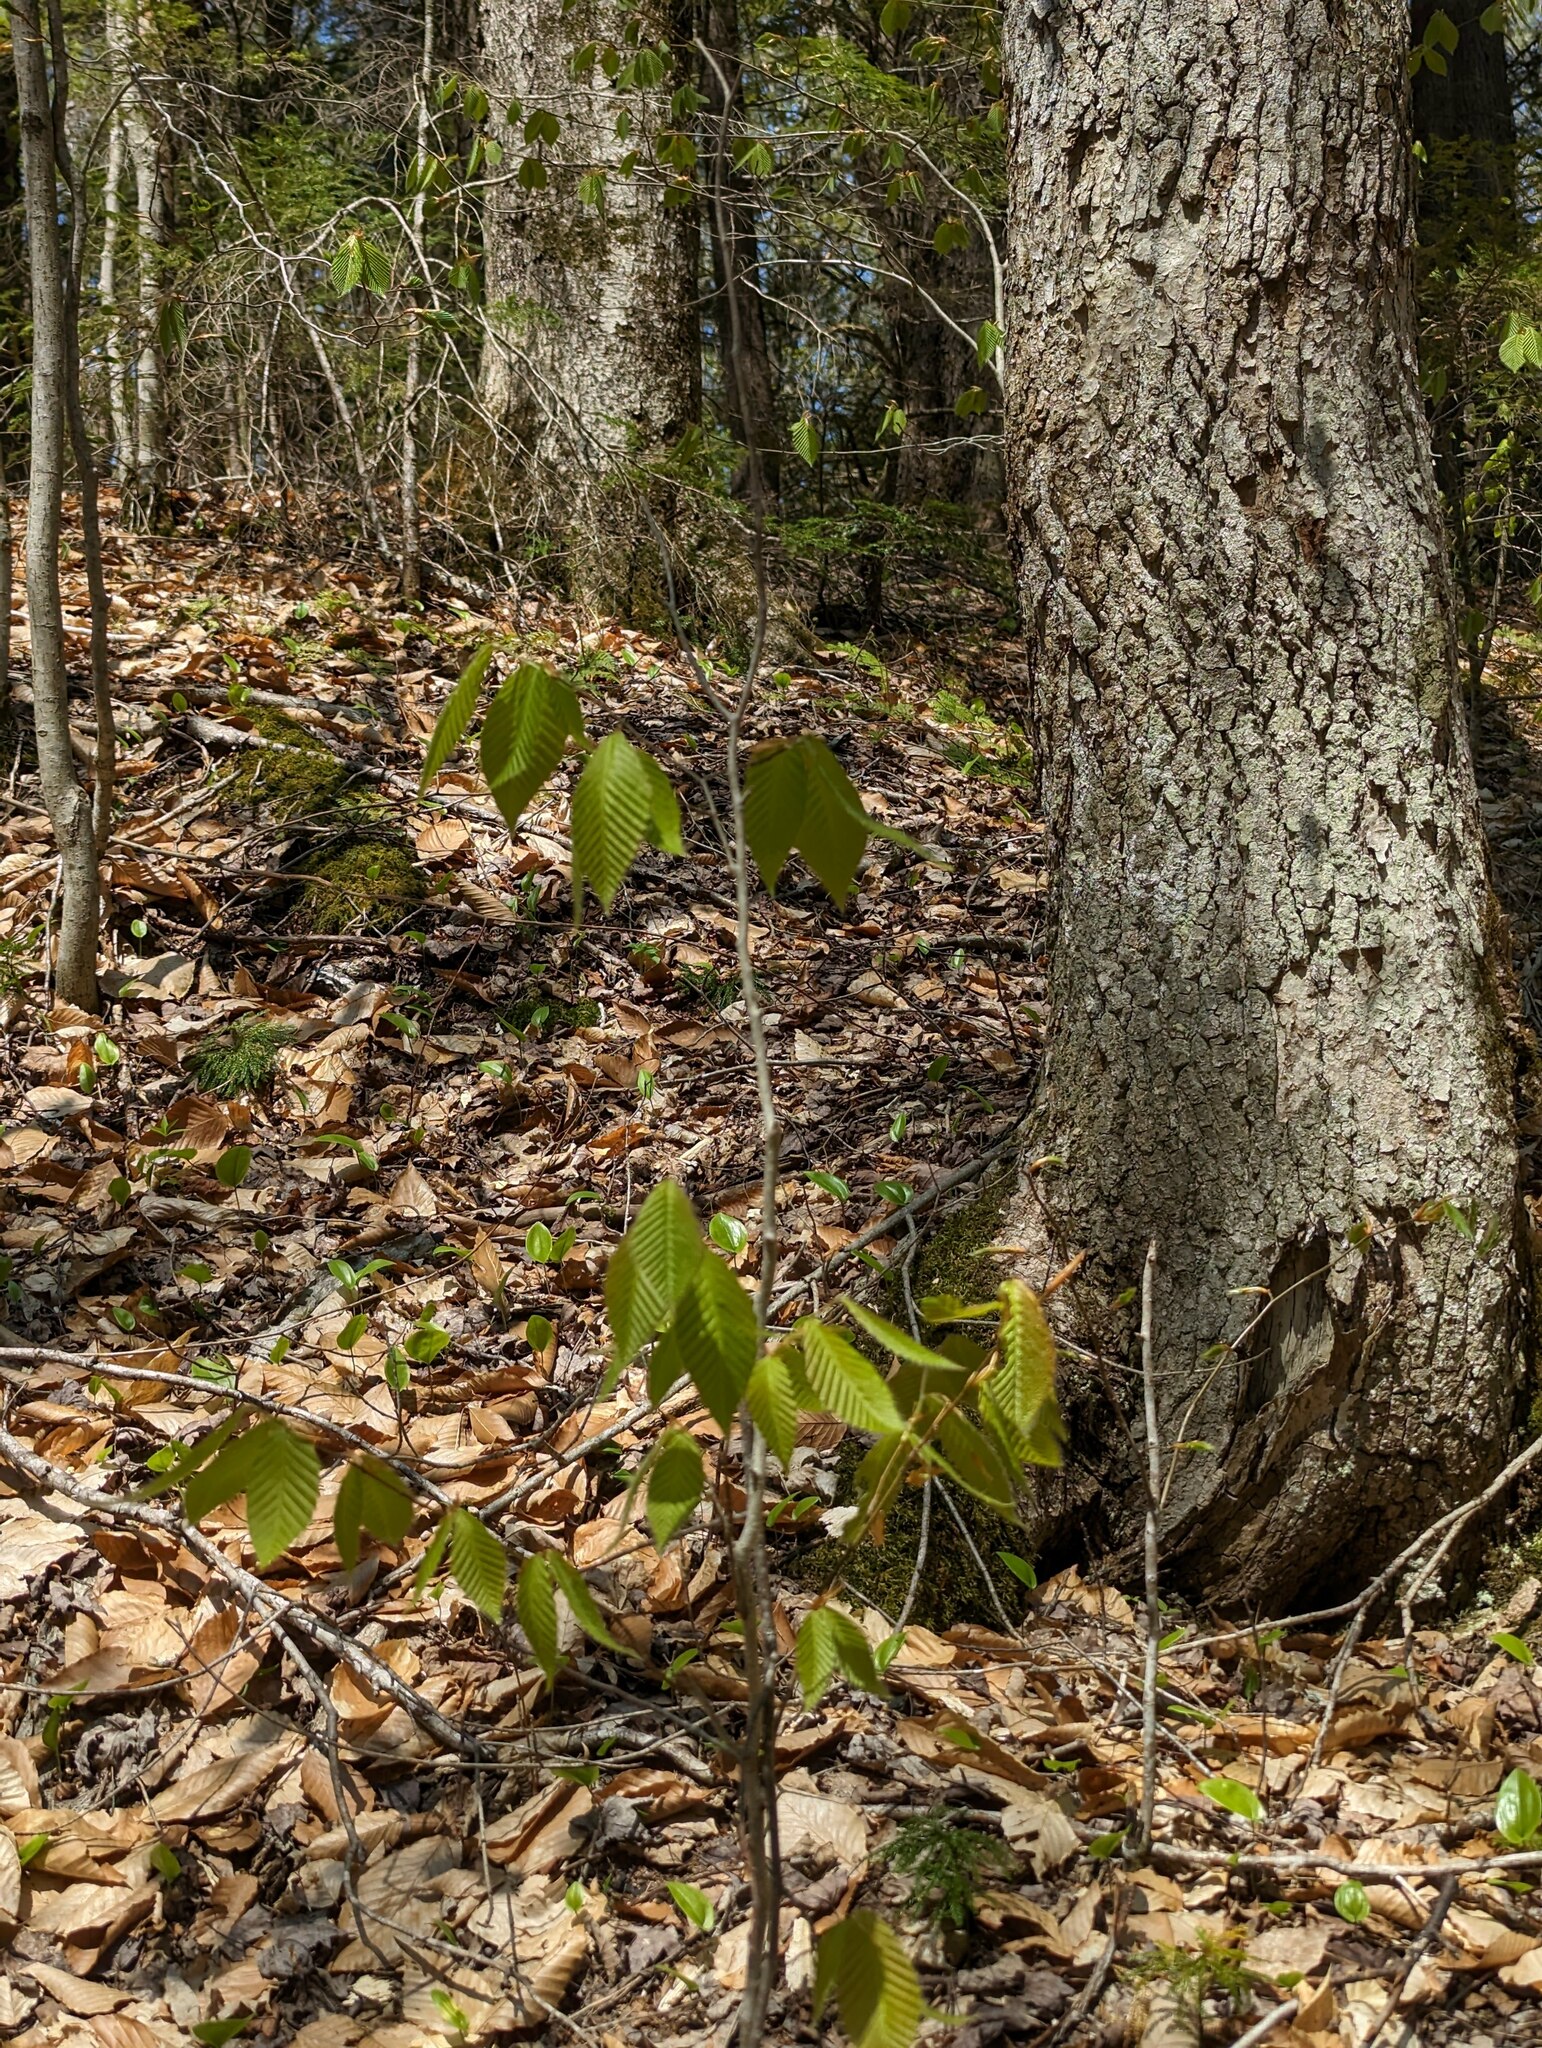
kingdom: Plantae
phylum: Tracheophyta
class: Magnoliopsida
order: Fagales
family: Fagaceae
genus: Fagus
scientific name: Fagus grandifolia
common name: American beech
